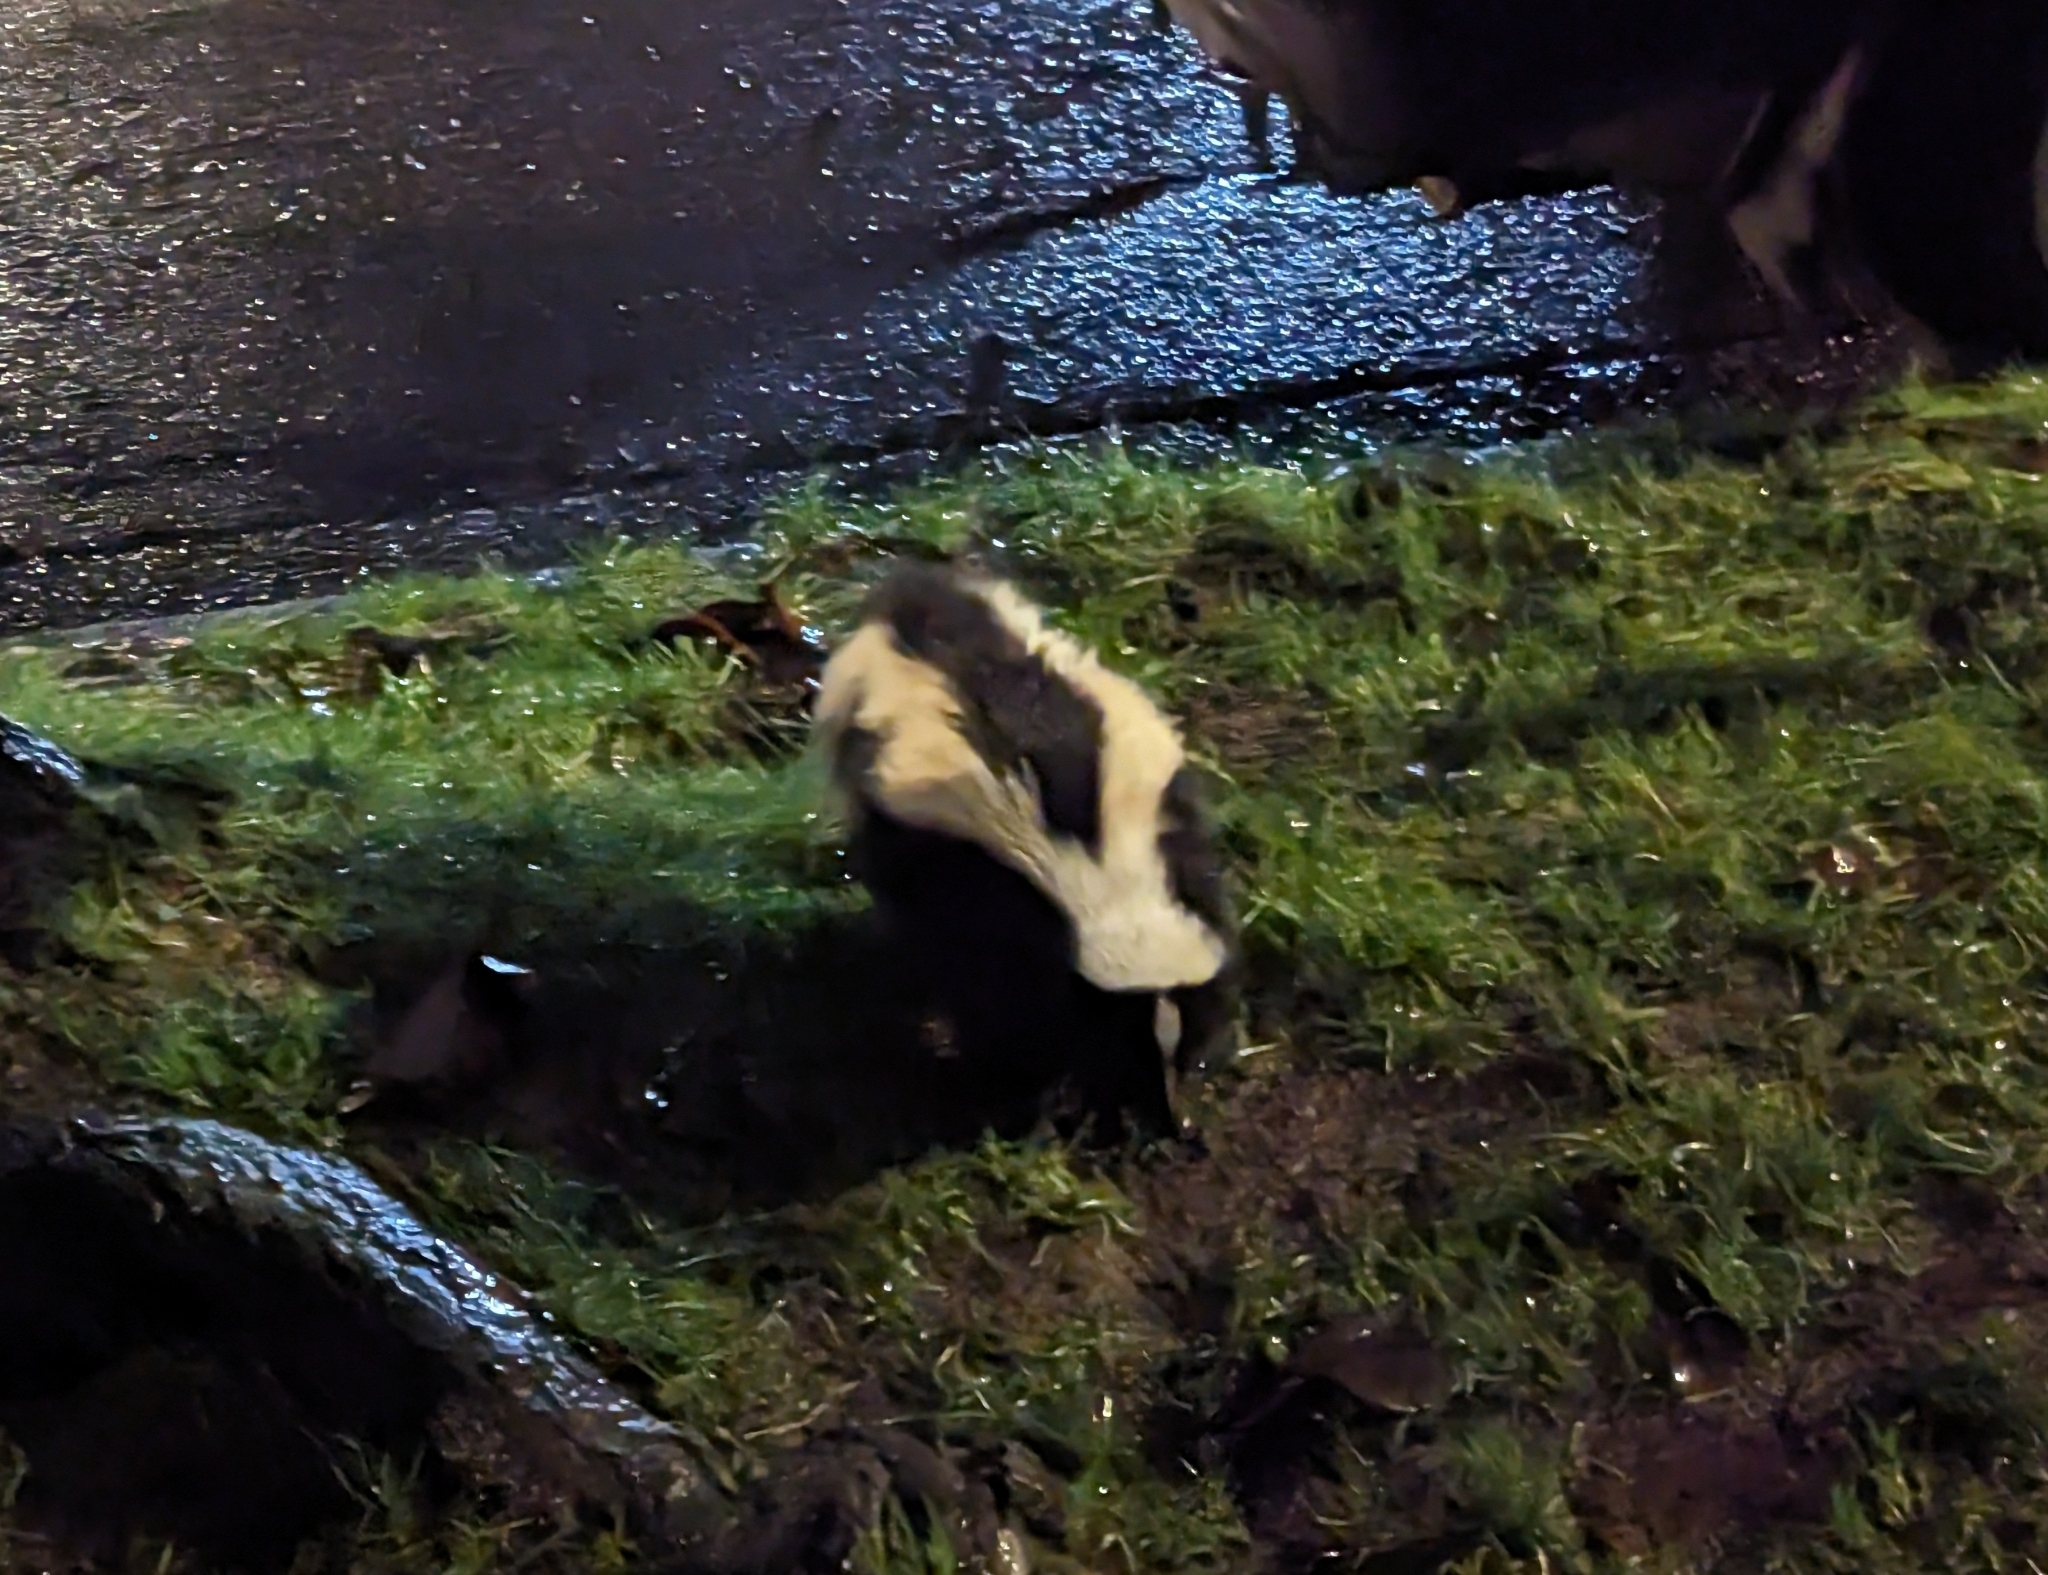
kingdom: Animalia
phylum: Chordata
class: Mammalia
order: Carnivora
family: Mephitidae
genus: Mephitis
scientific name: Mephitis mephitis
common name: Striped skunk
